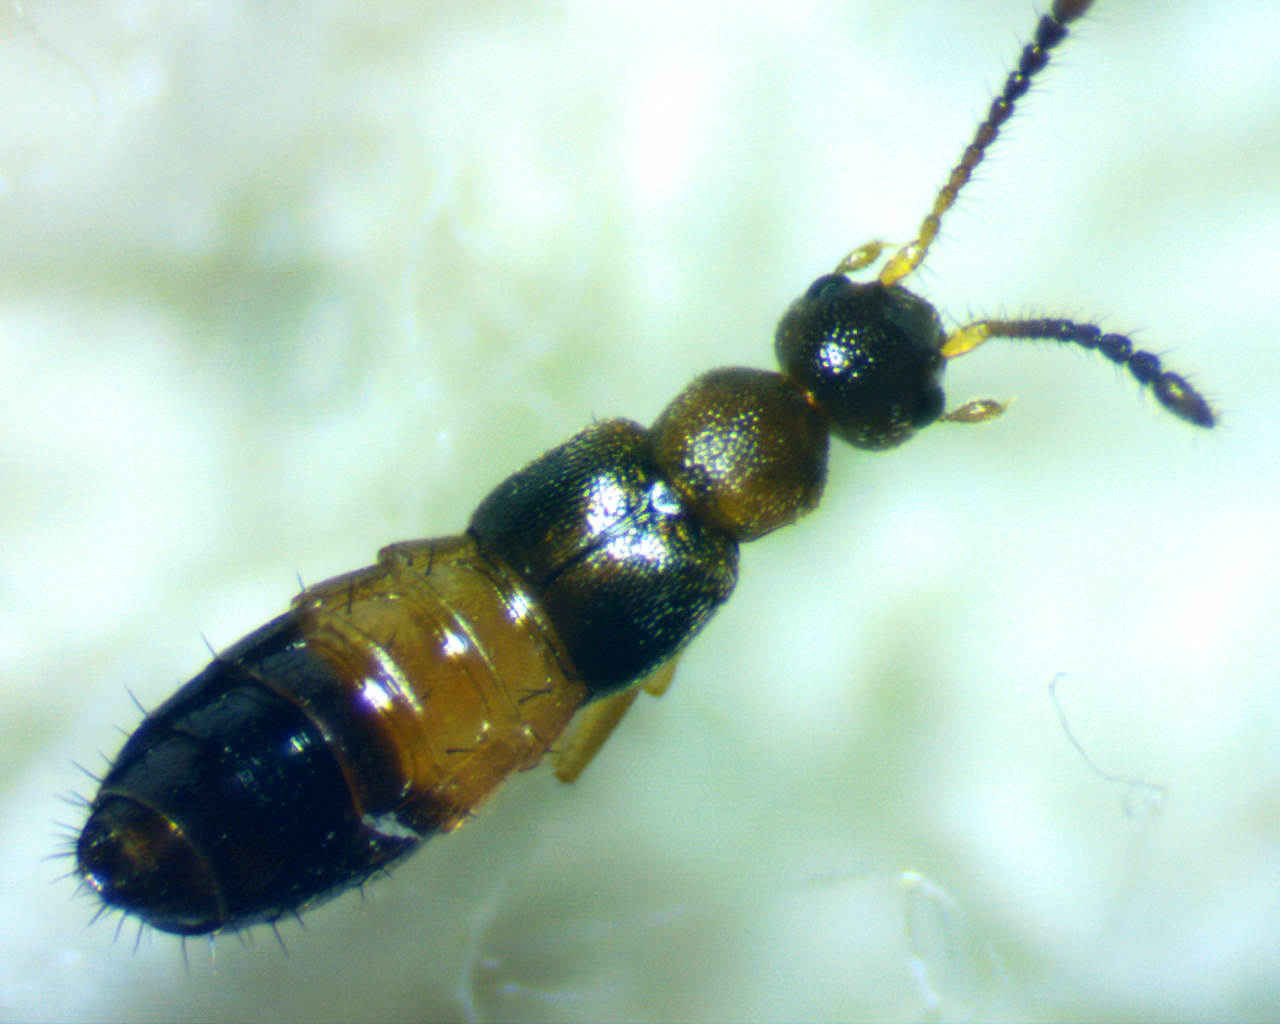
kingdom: Animalia
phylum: Arthropoda
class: Insecta
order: Coleoptera
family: Staphylinidae
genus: Meronera
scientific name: Meronera venustula
